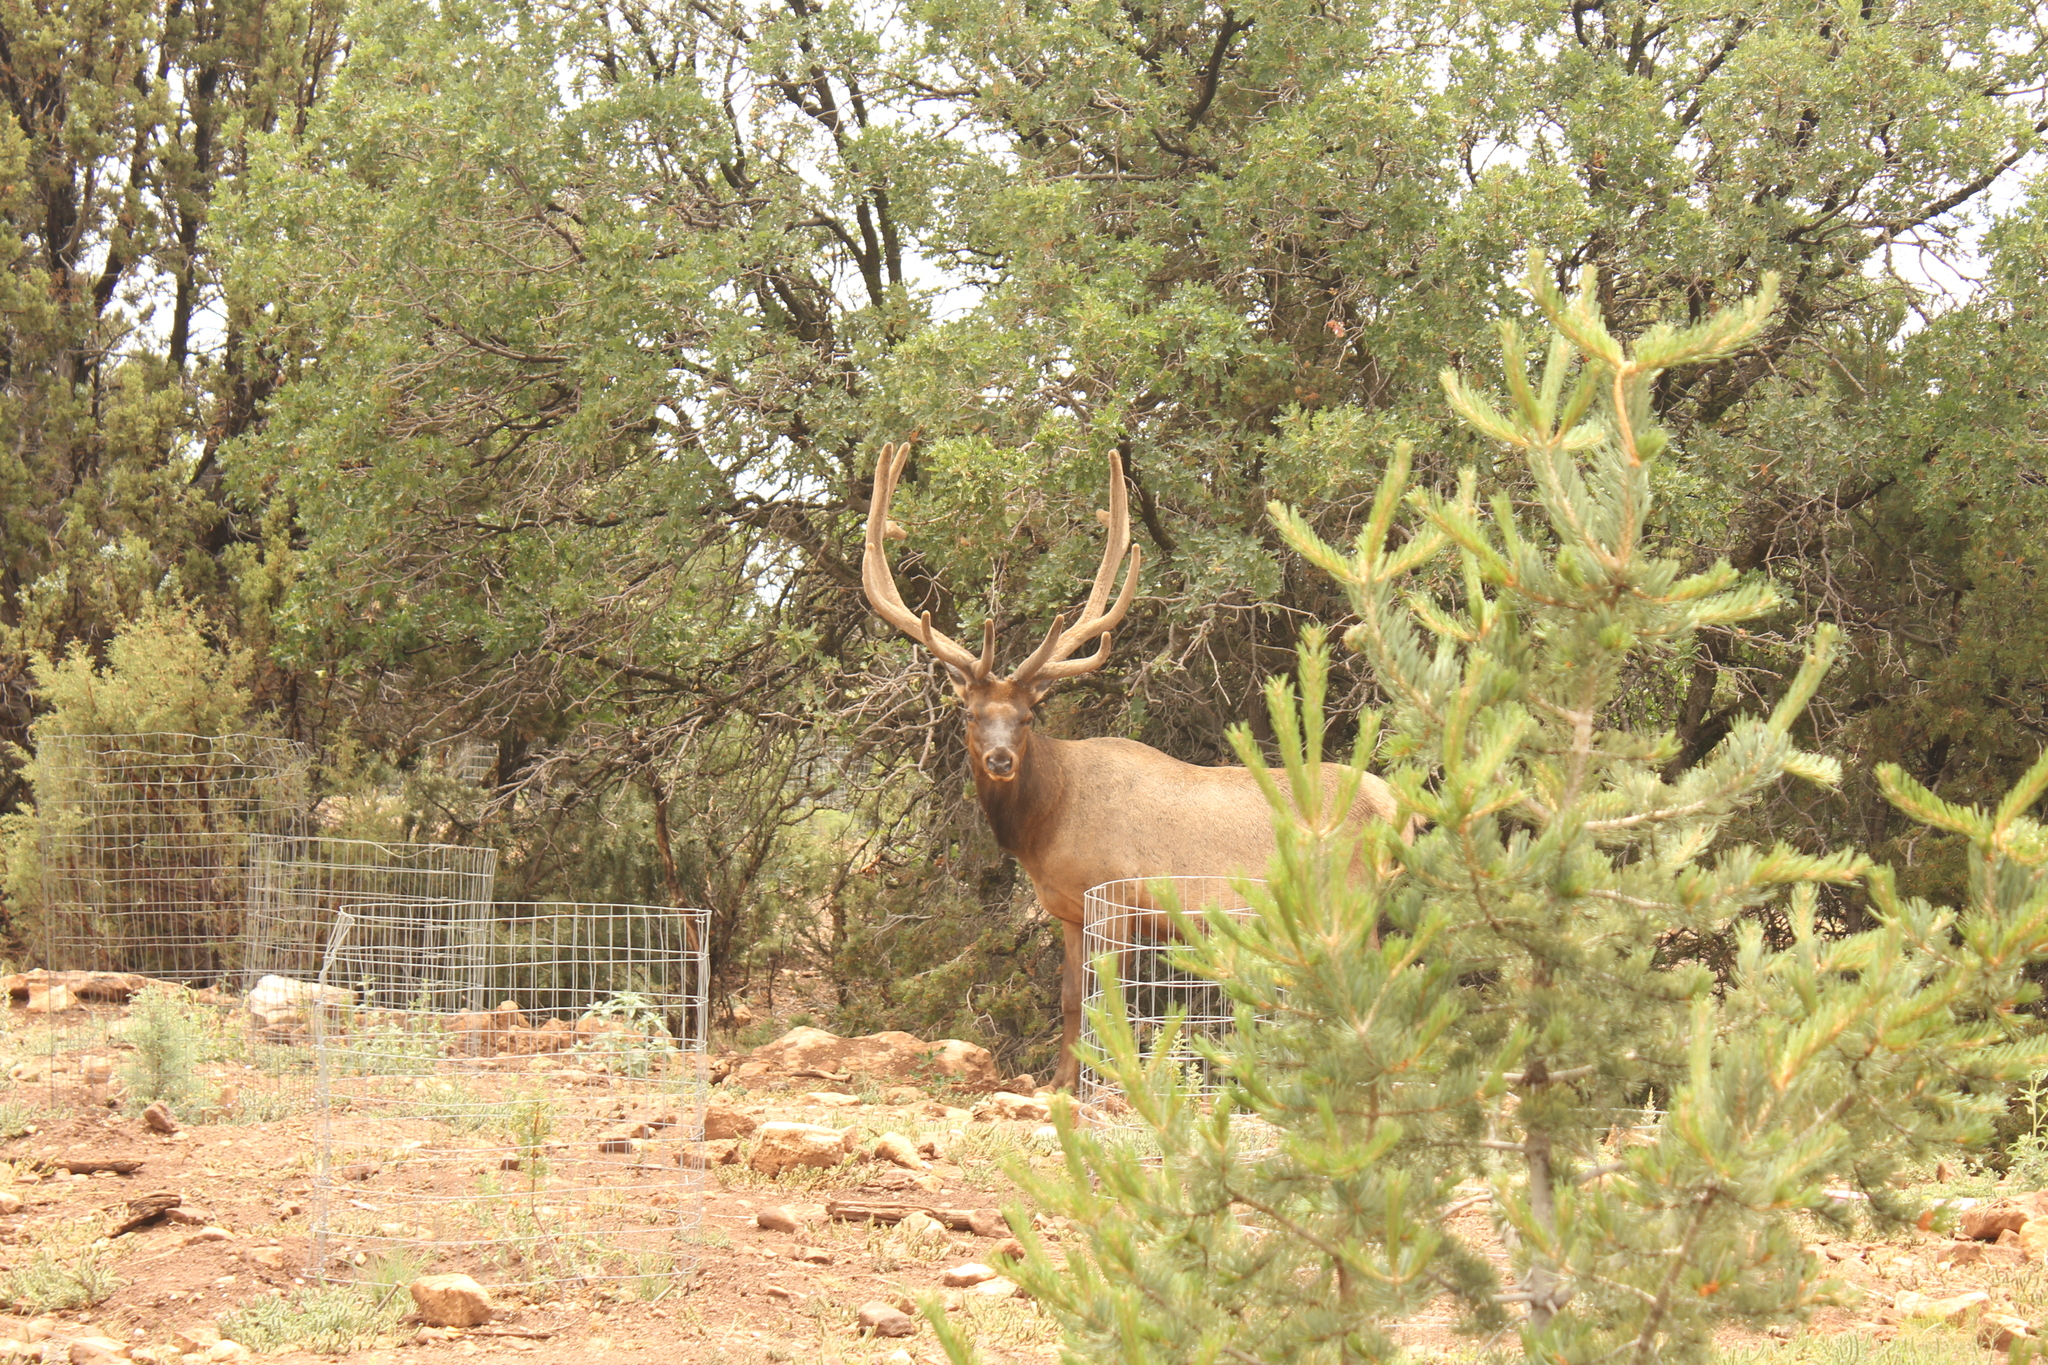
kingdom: Animalia
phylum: Chordata
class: Mammalia
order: Artiodactyla
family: Cervidae
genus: Cervus
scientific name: Cervus elaphus
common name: Red deer
